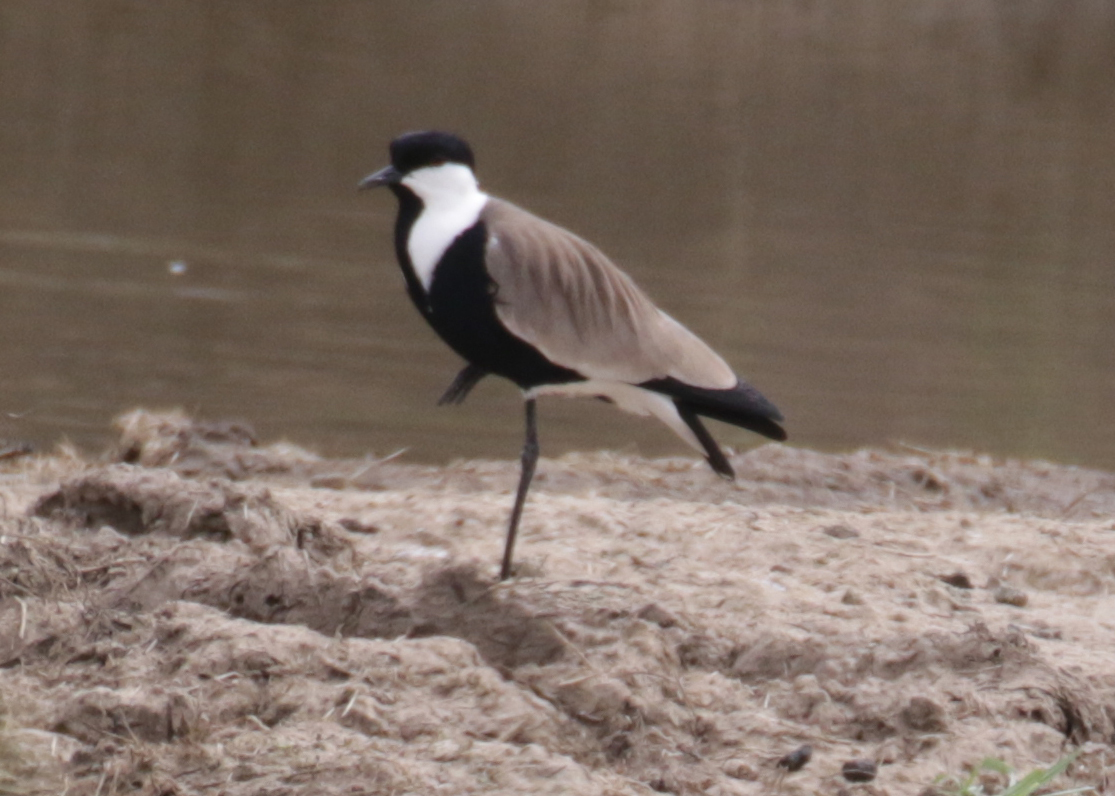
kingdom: Animalia
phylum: Chordata
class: Aves
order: Charadriiformes
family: Charadriidae
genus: Vanellus
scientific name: Vanellus spinosus
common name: Spur-winged lapwing
